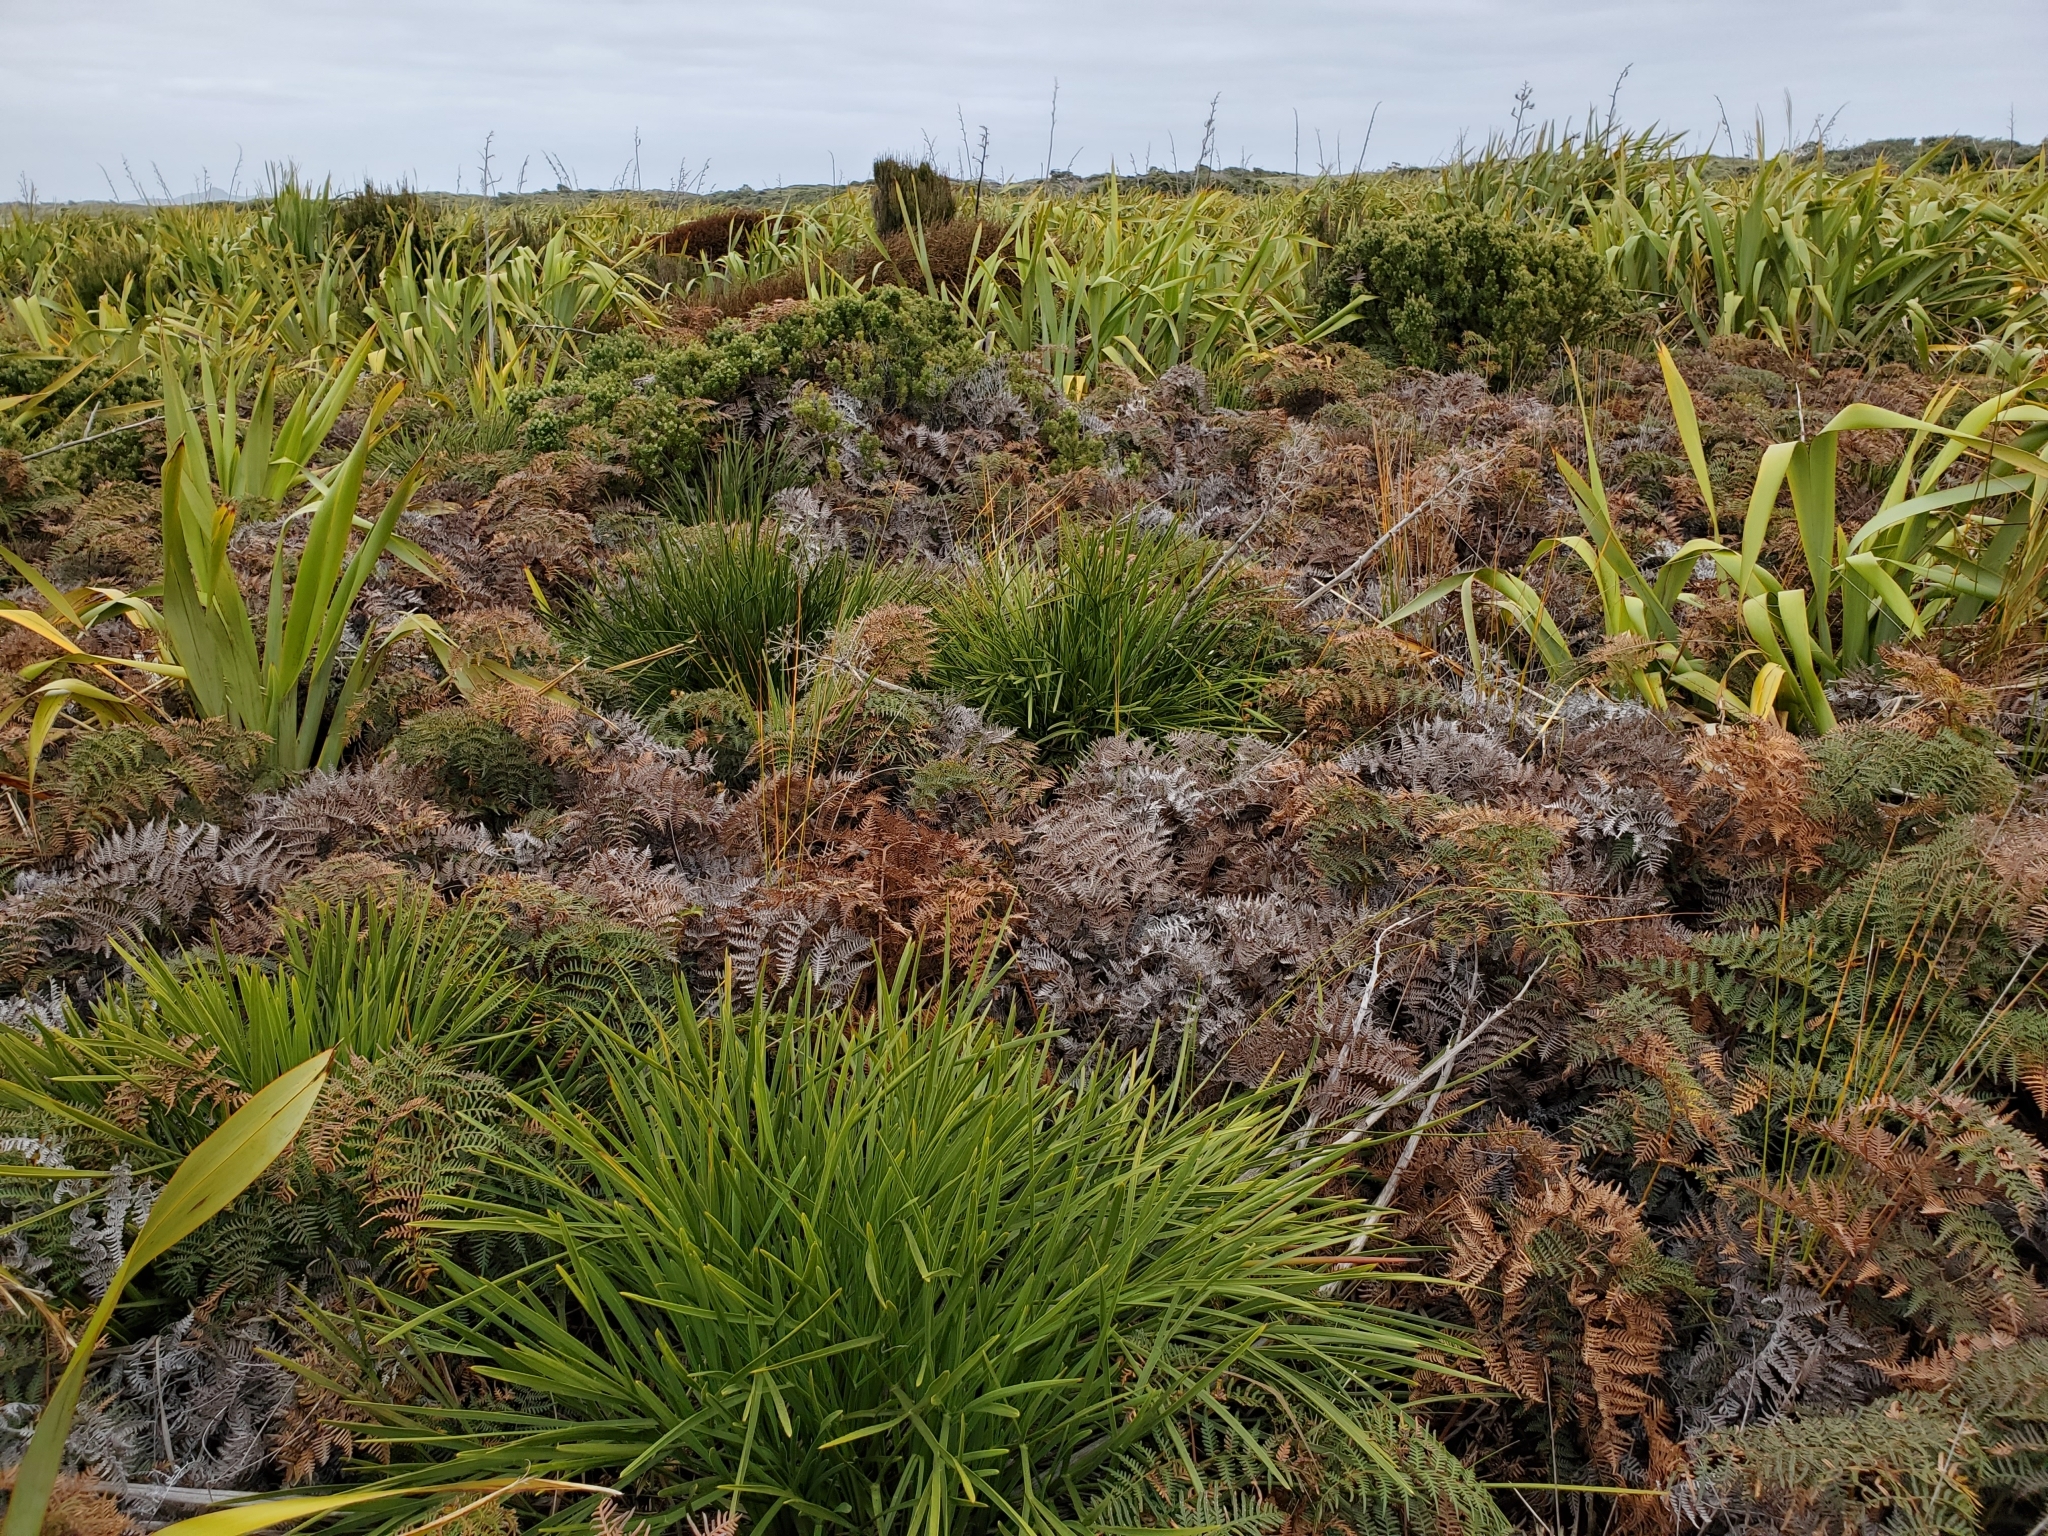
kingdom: Plantae
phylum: Tracheophyta
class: Magnoliopsida
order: Apiales
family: Apiaceae
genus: Aciphylla
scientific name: Aciphylla traversii
